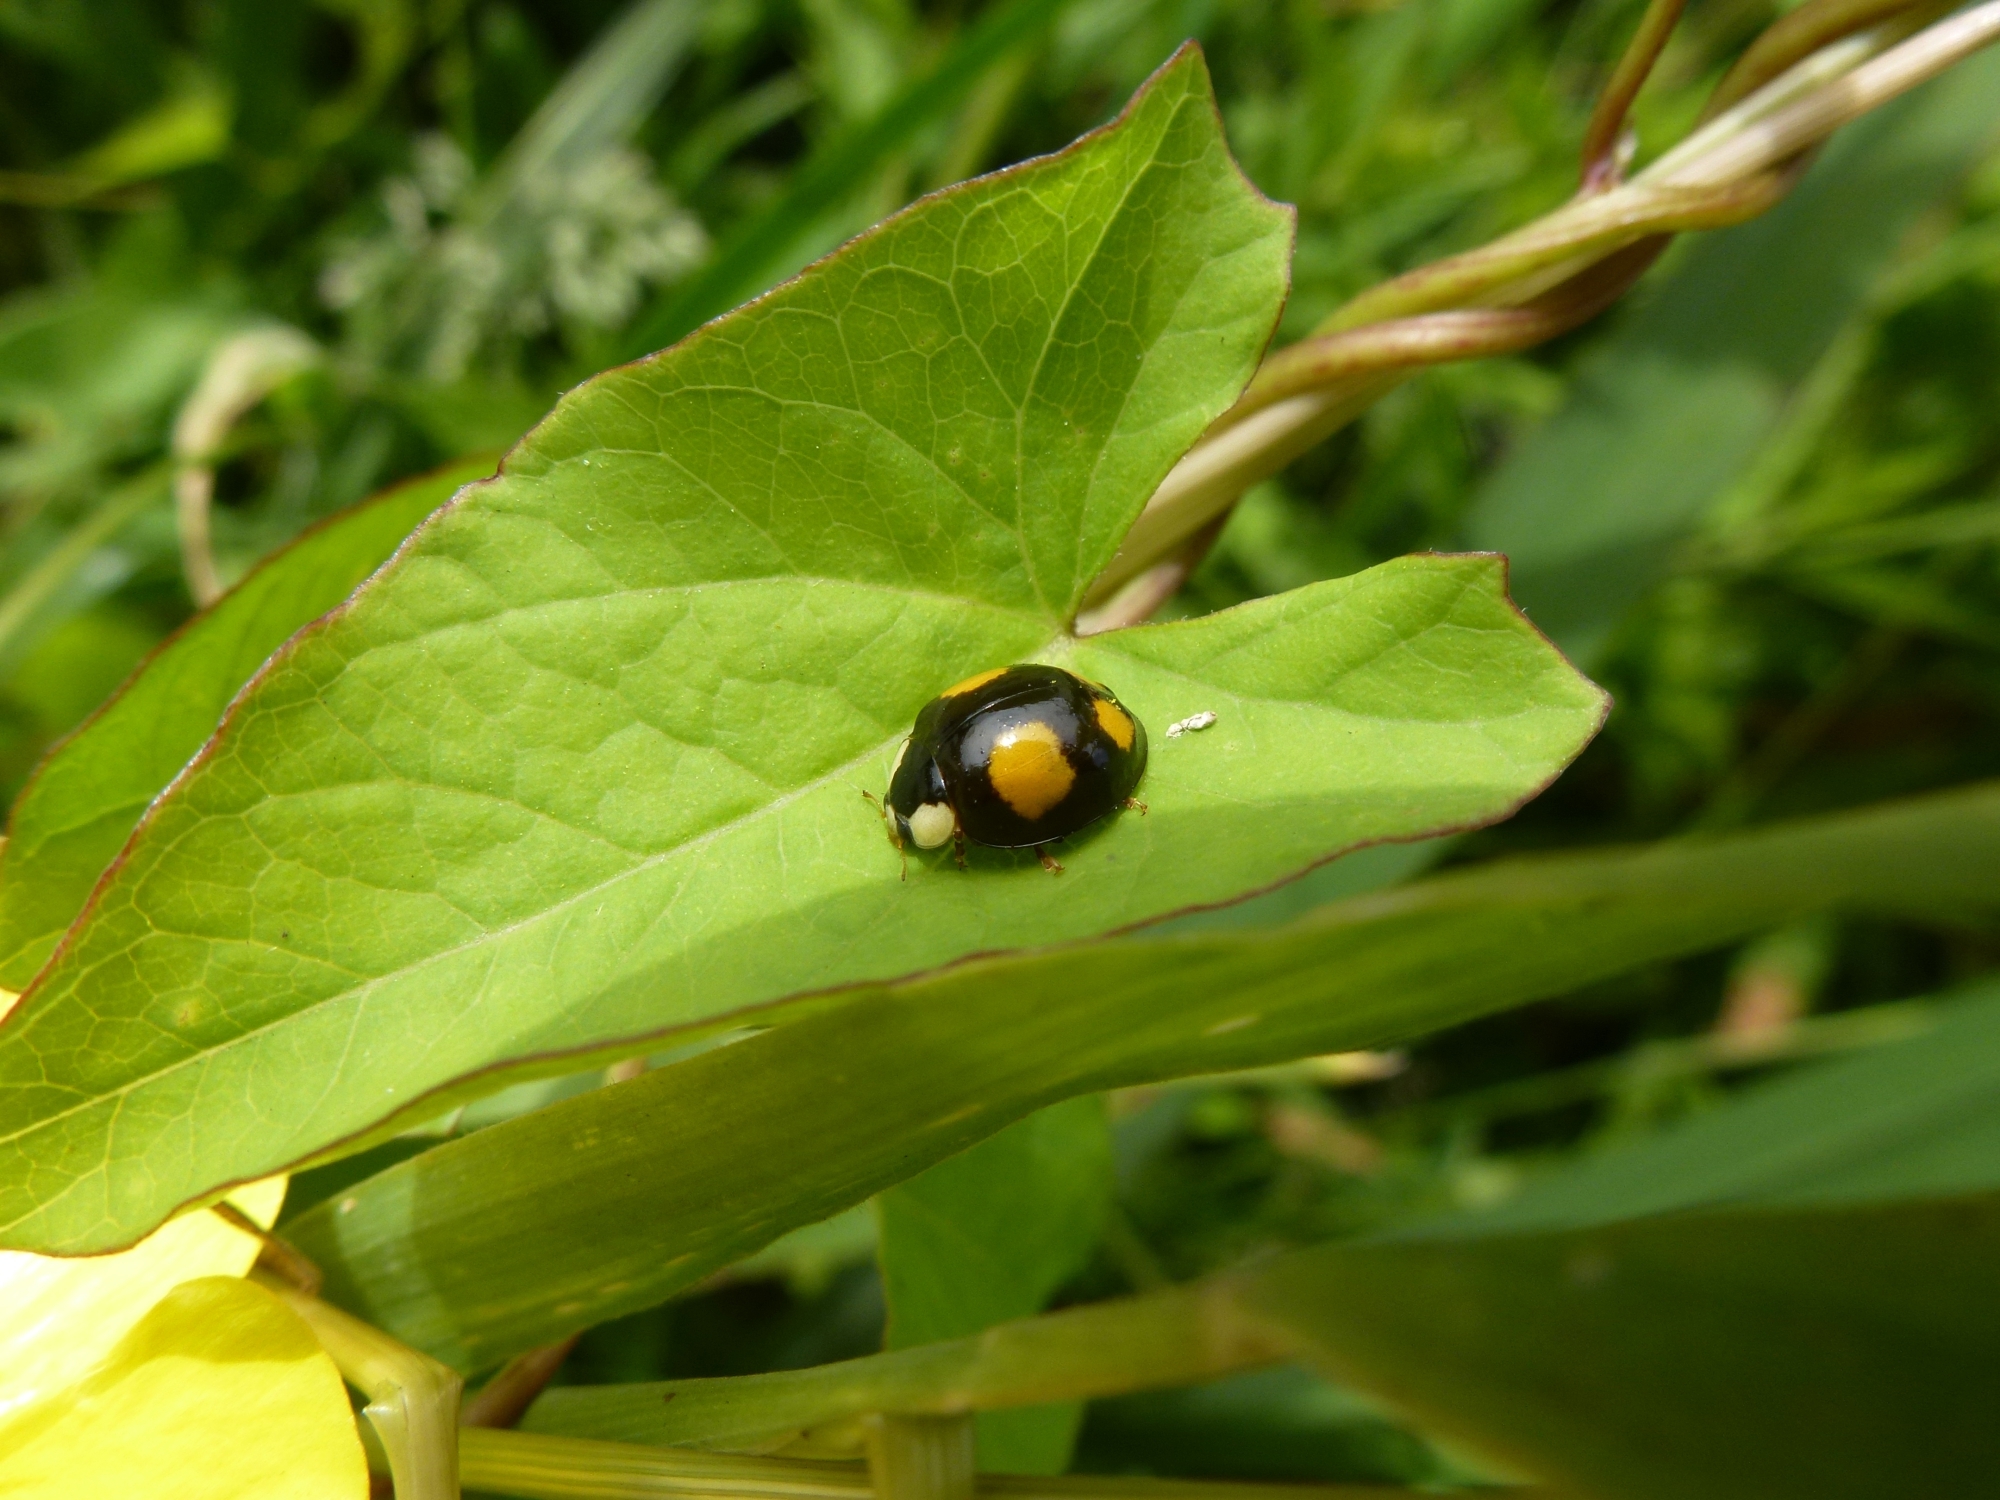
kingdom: Animalia
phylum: Arthropoda
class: Insecta
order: Coleoptera
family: Coccinellidae
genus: Harmonia
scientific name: Harmonia axyridis
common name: Harlequin ladybird
